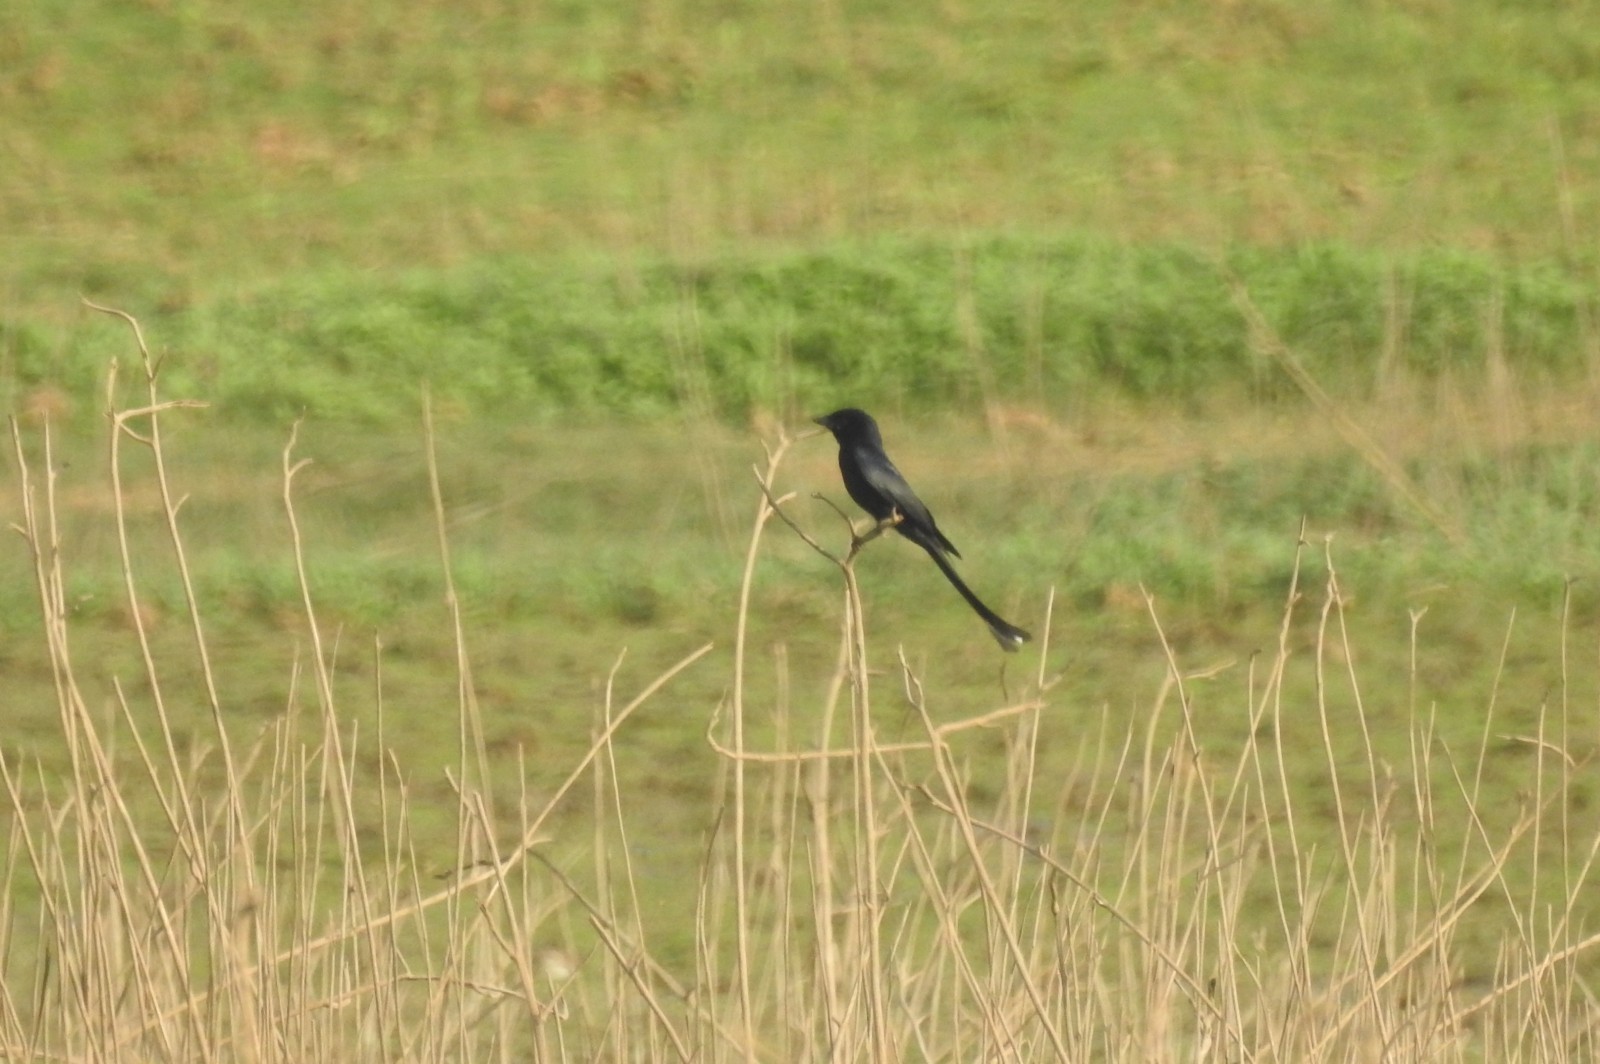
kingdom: Animalia
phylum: Chordata
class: Aves
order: Passeriformes
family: Dicruridae
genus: Dicrurus
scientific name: Dicrurus macrocercus
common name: Black drongo
